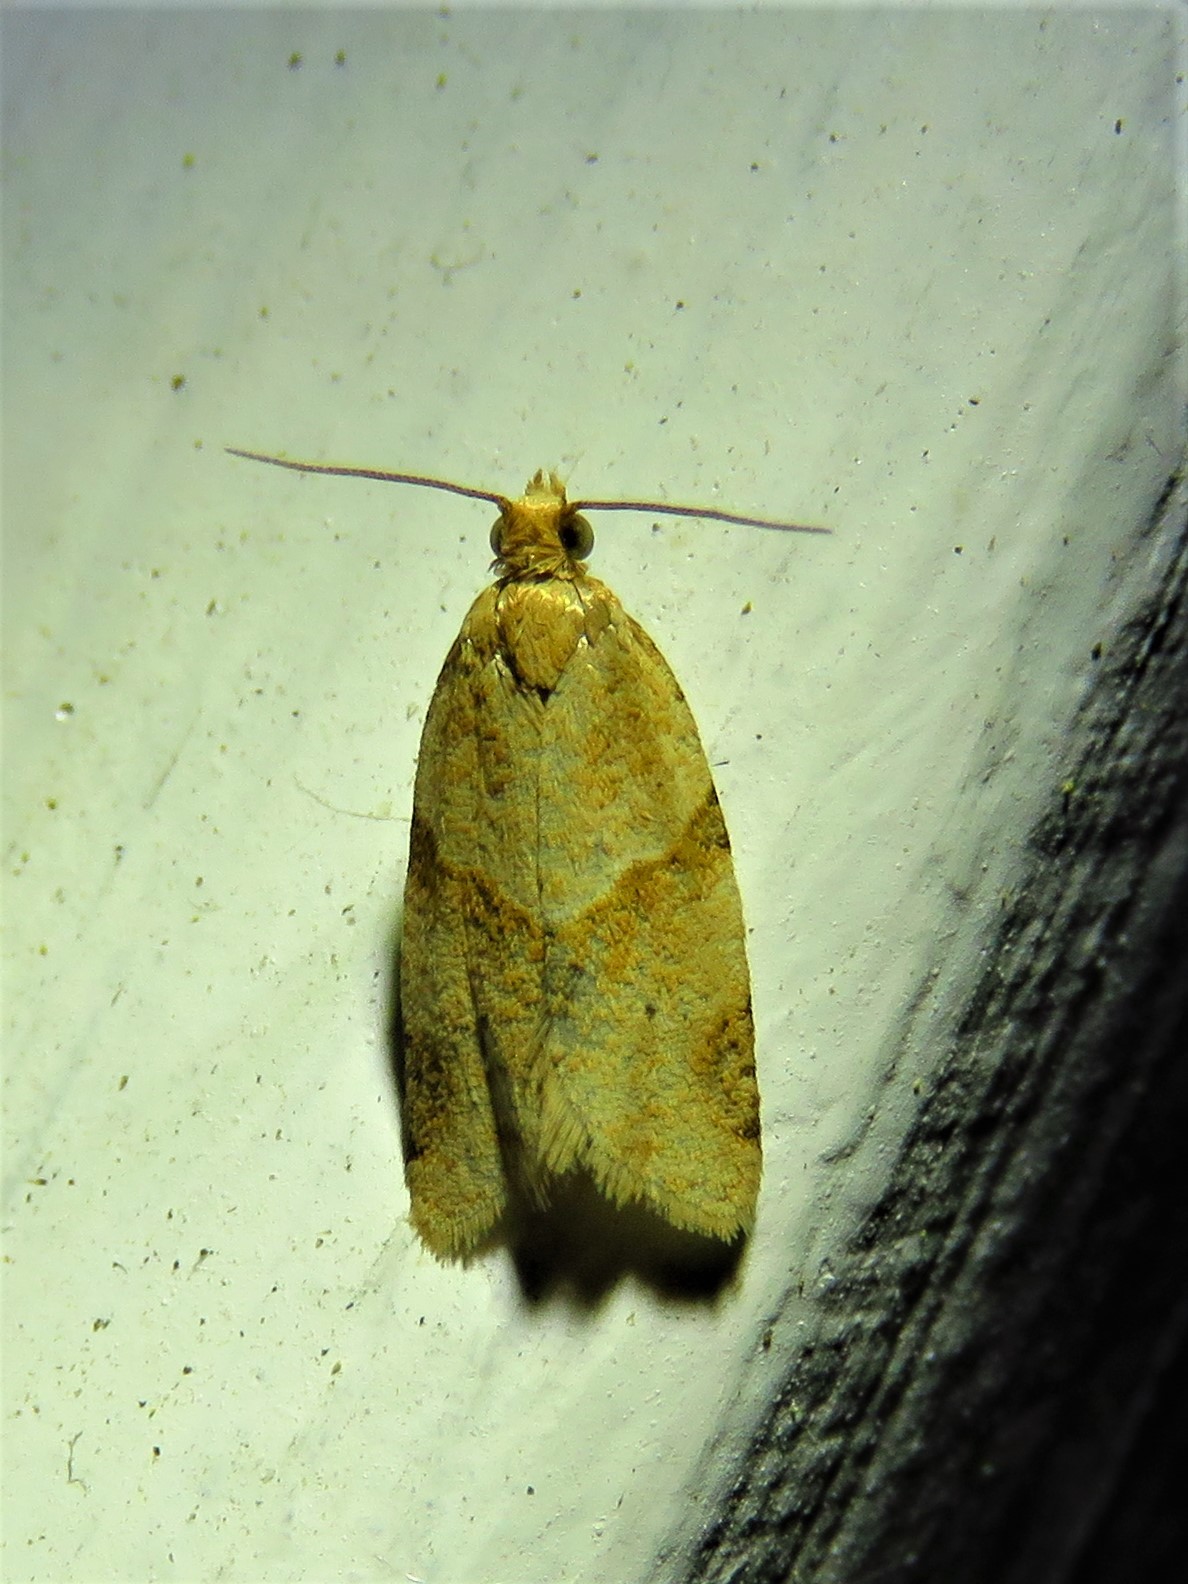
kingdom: Animalia
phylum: Arthropoda
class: Insecta
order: Lepidoptera
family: Tortricidae
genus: Clepsis
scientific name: Clepsis peritana
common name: Garden tortrix
